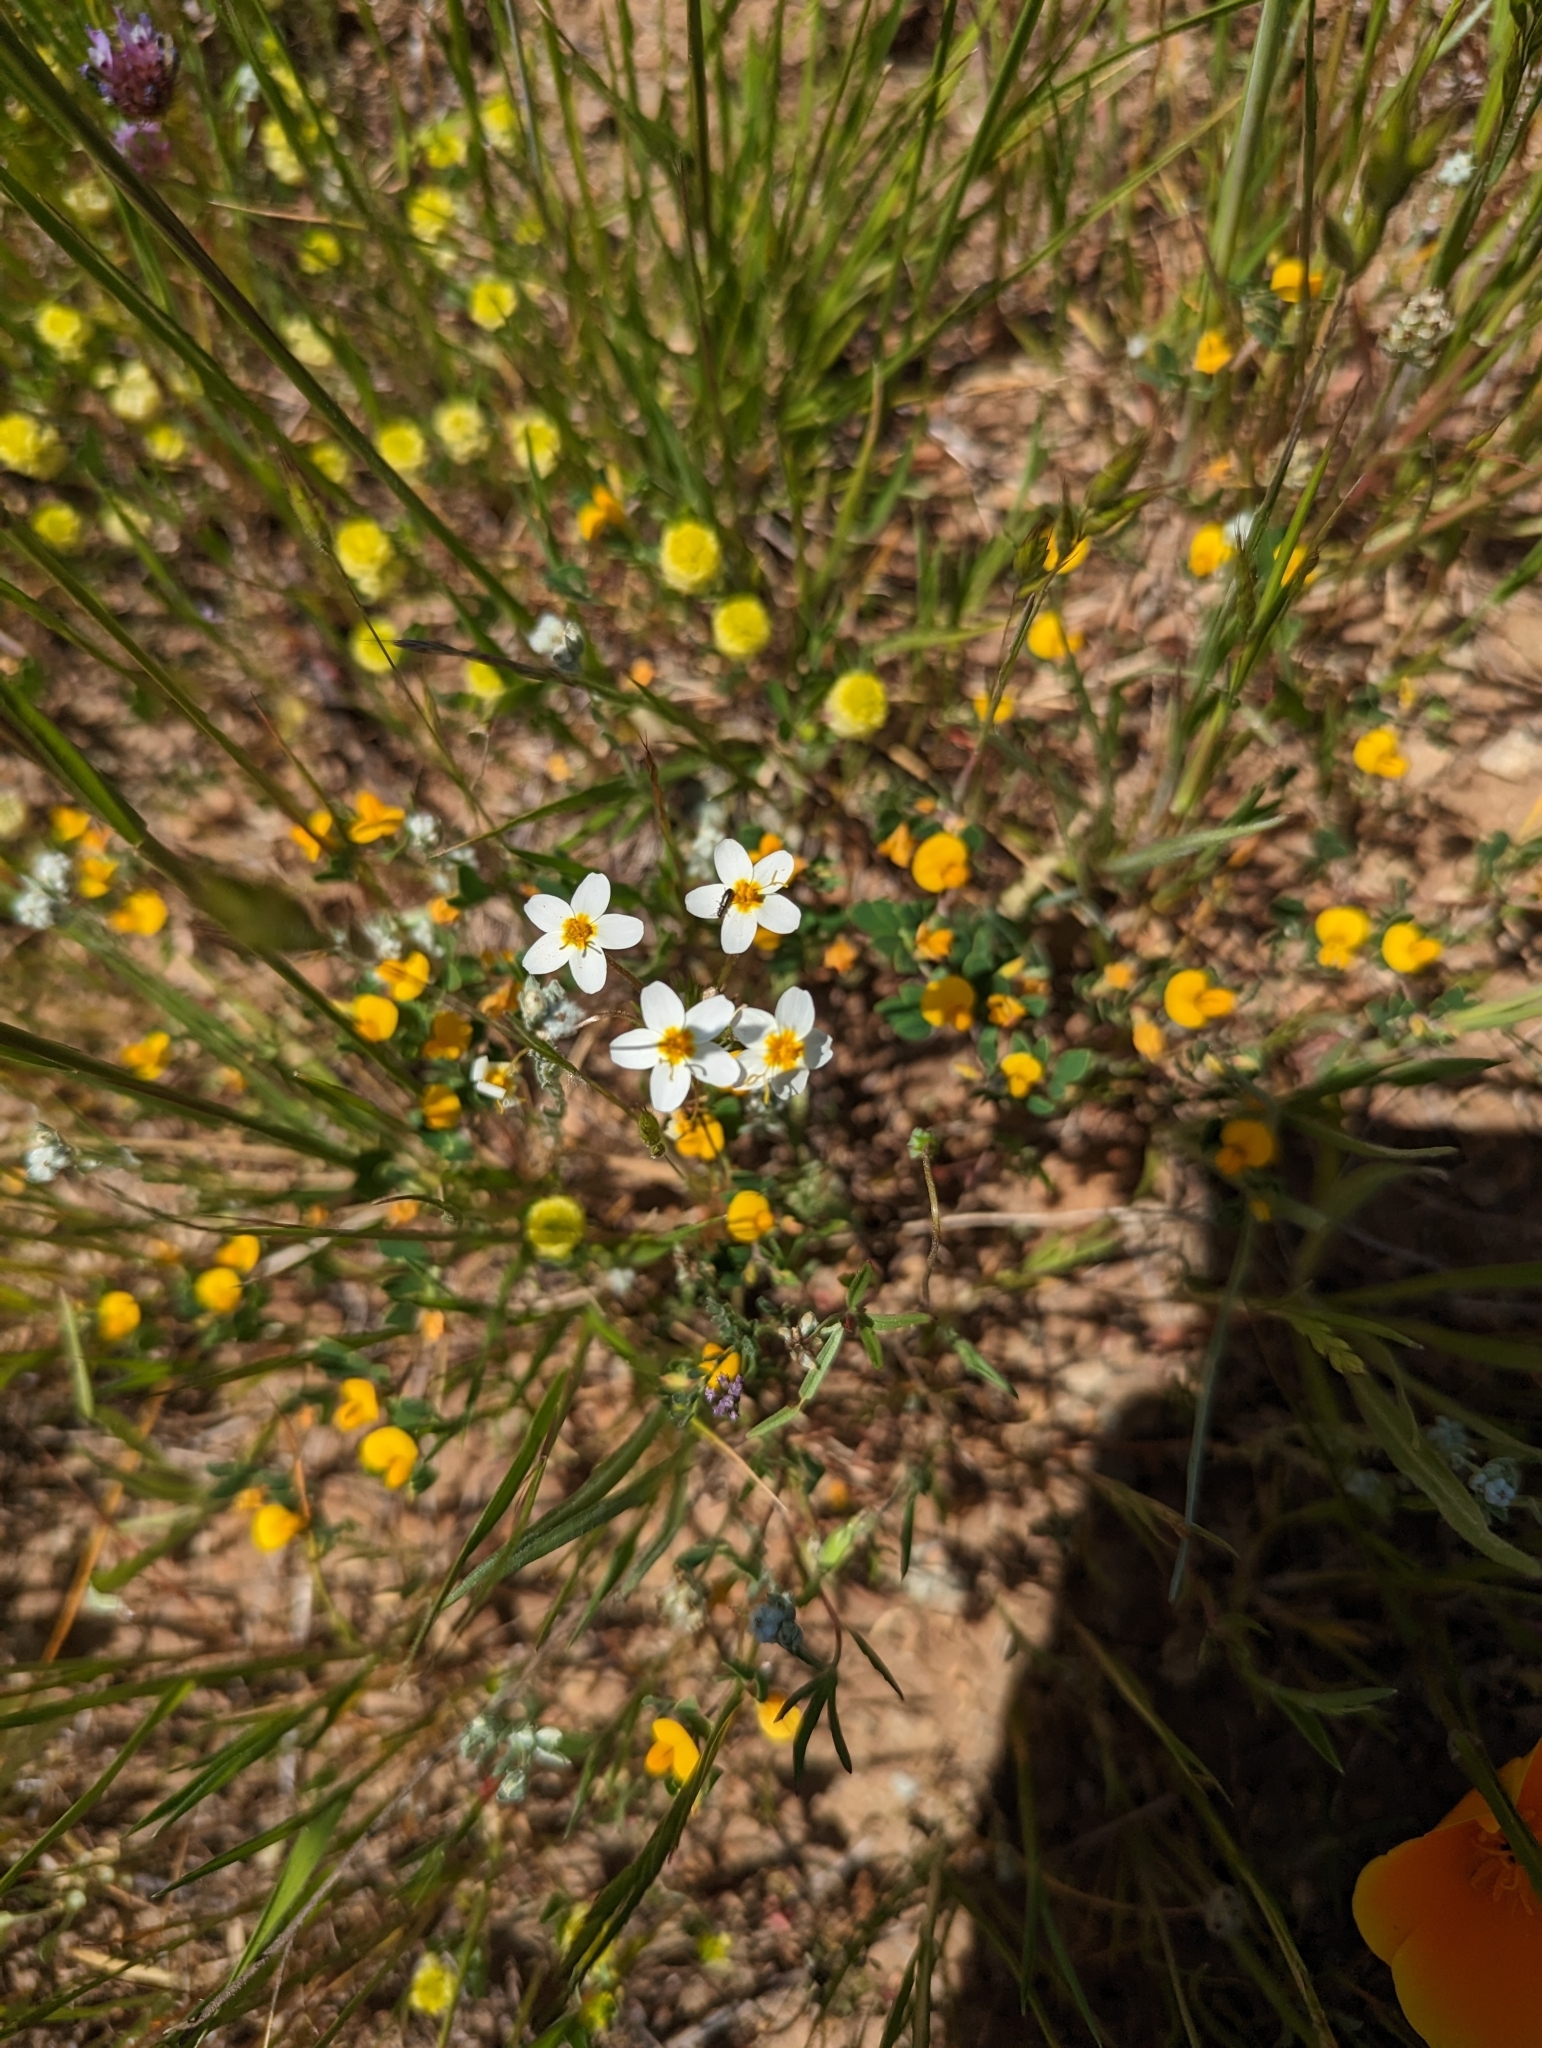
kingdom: Plantae
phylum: Tracheophyta
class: Magnoliopsida
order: Ericales
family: Polemoniaceae
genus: Leptosiphon
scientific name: Leptosiphon parviflorus
